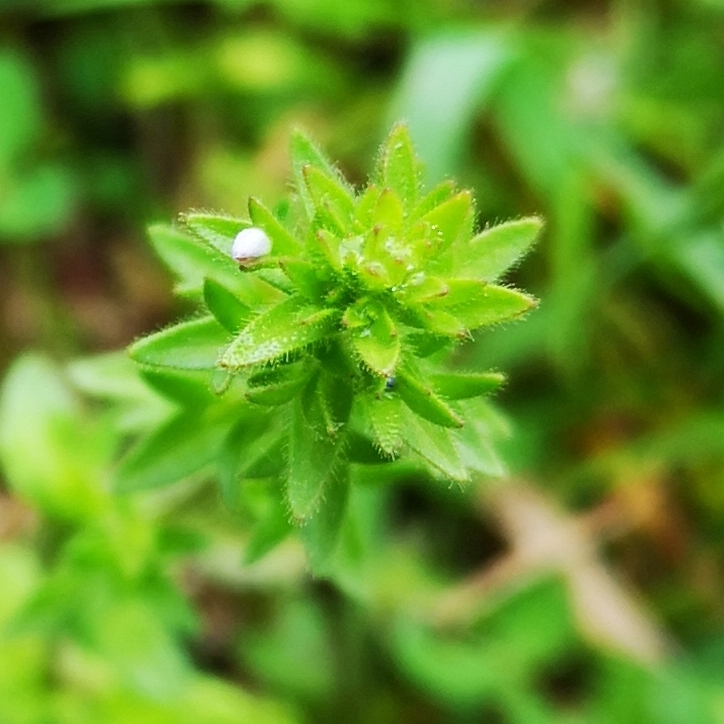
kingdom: Plantae
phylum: Tracheophyta
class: Magnoliopsida
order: Lamiales
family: Plantaginaceae
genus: Veronica
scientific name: Veronica arvensis
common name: Corn speedwell
